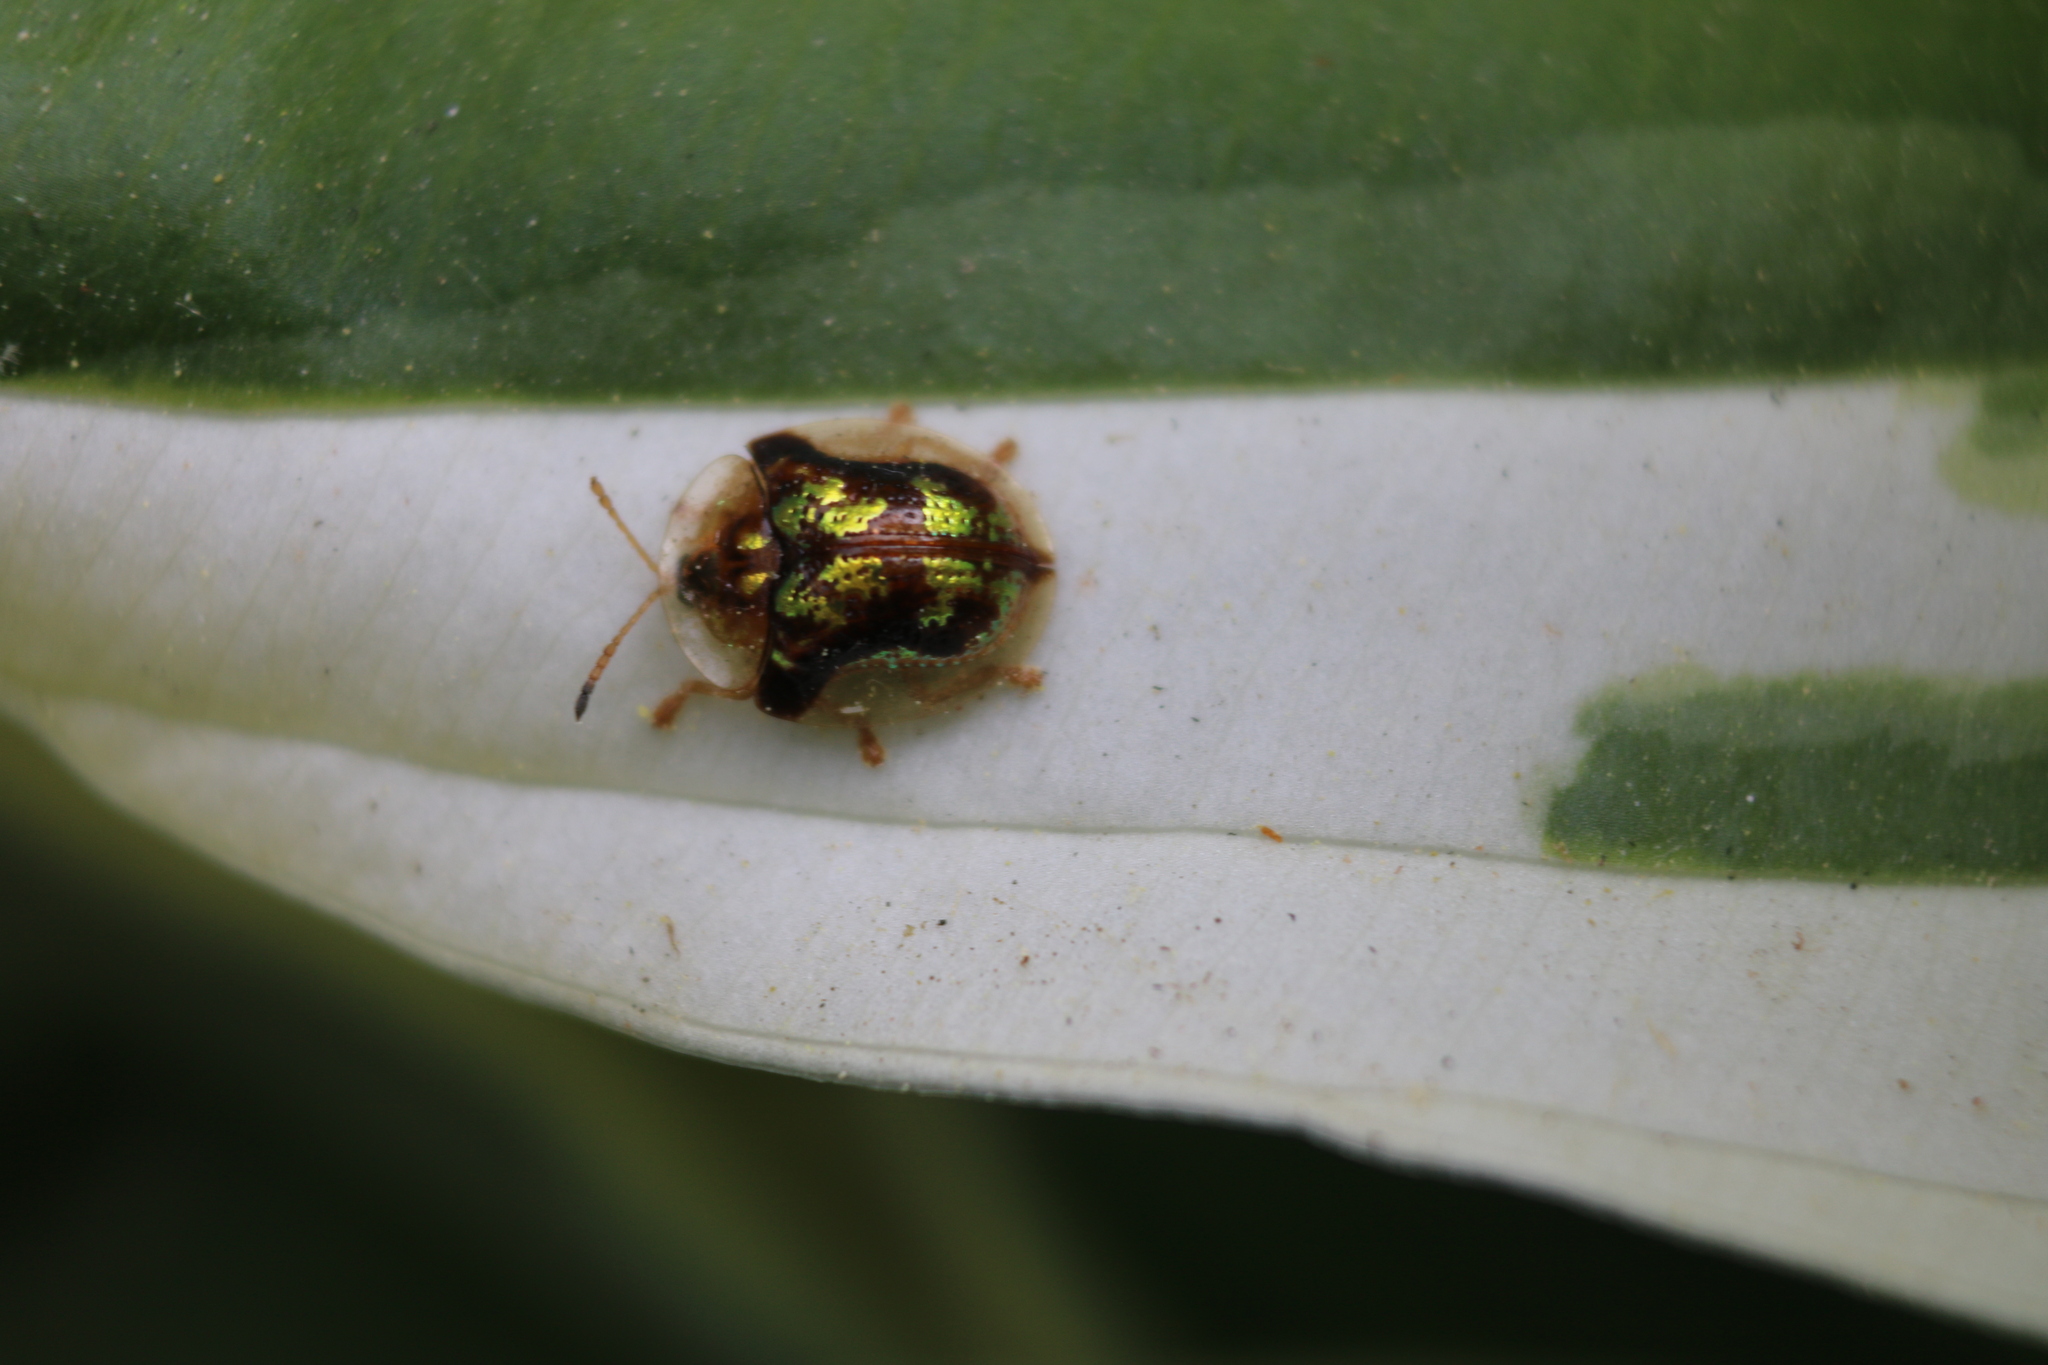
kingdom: Animalia
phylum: Arthropoda
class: Insecta
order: Coleoptera
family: Chrysomelidae
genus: Deloyala
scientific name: Deloyala guttata
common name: Mottled tortoise beetle
